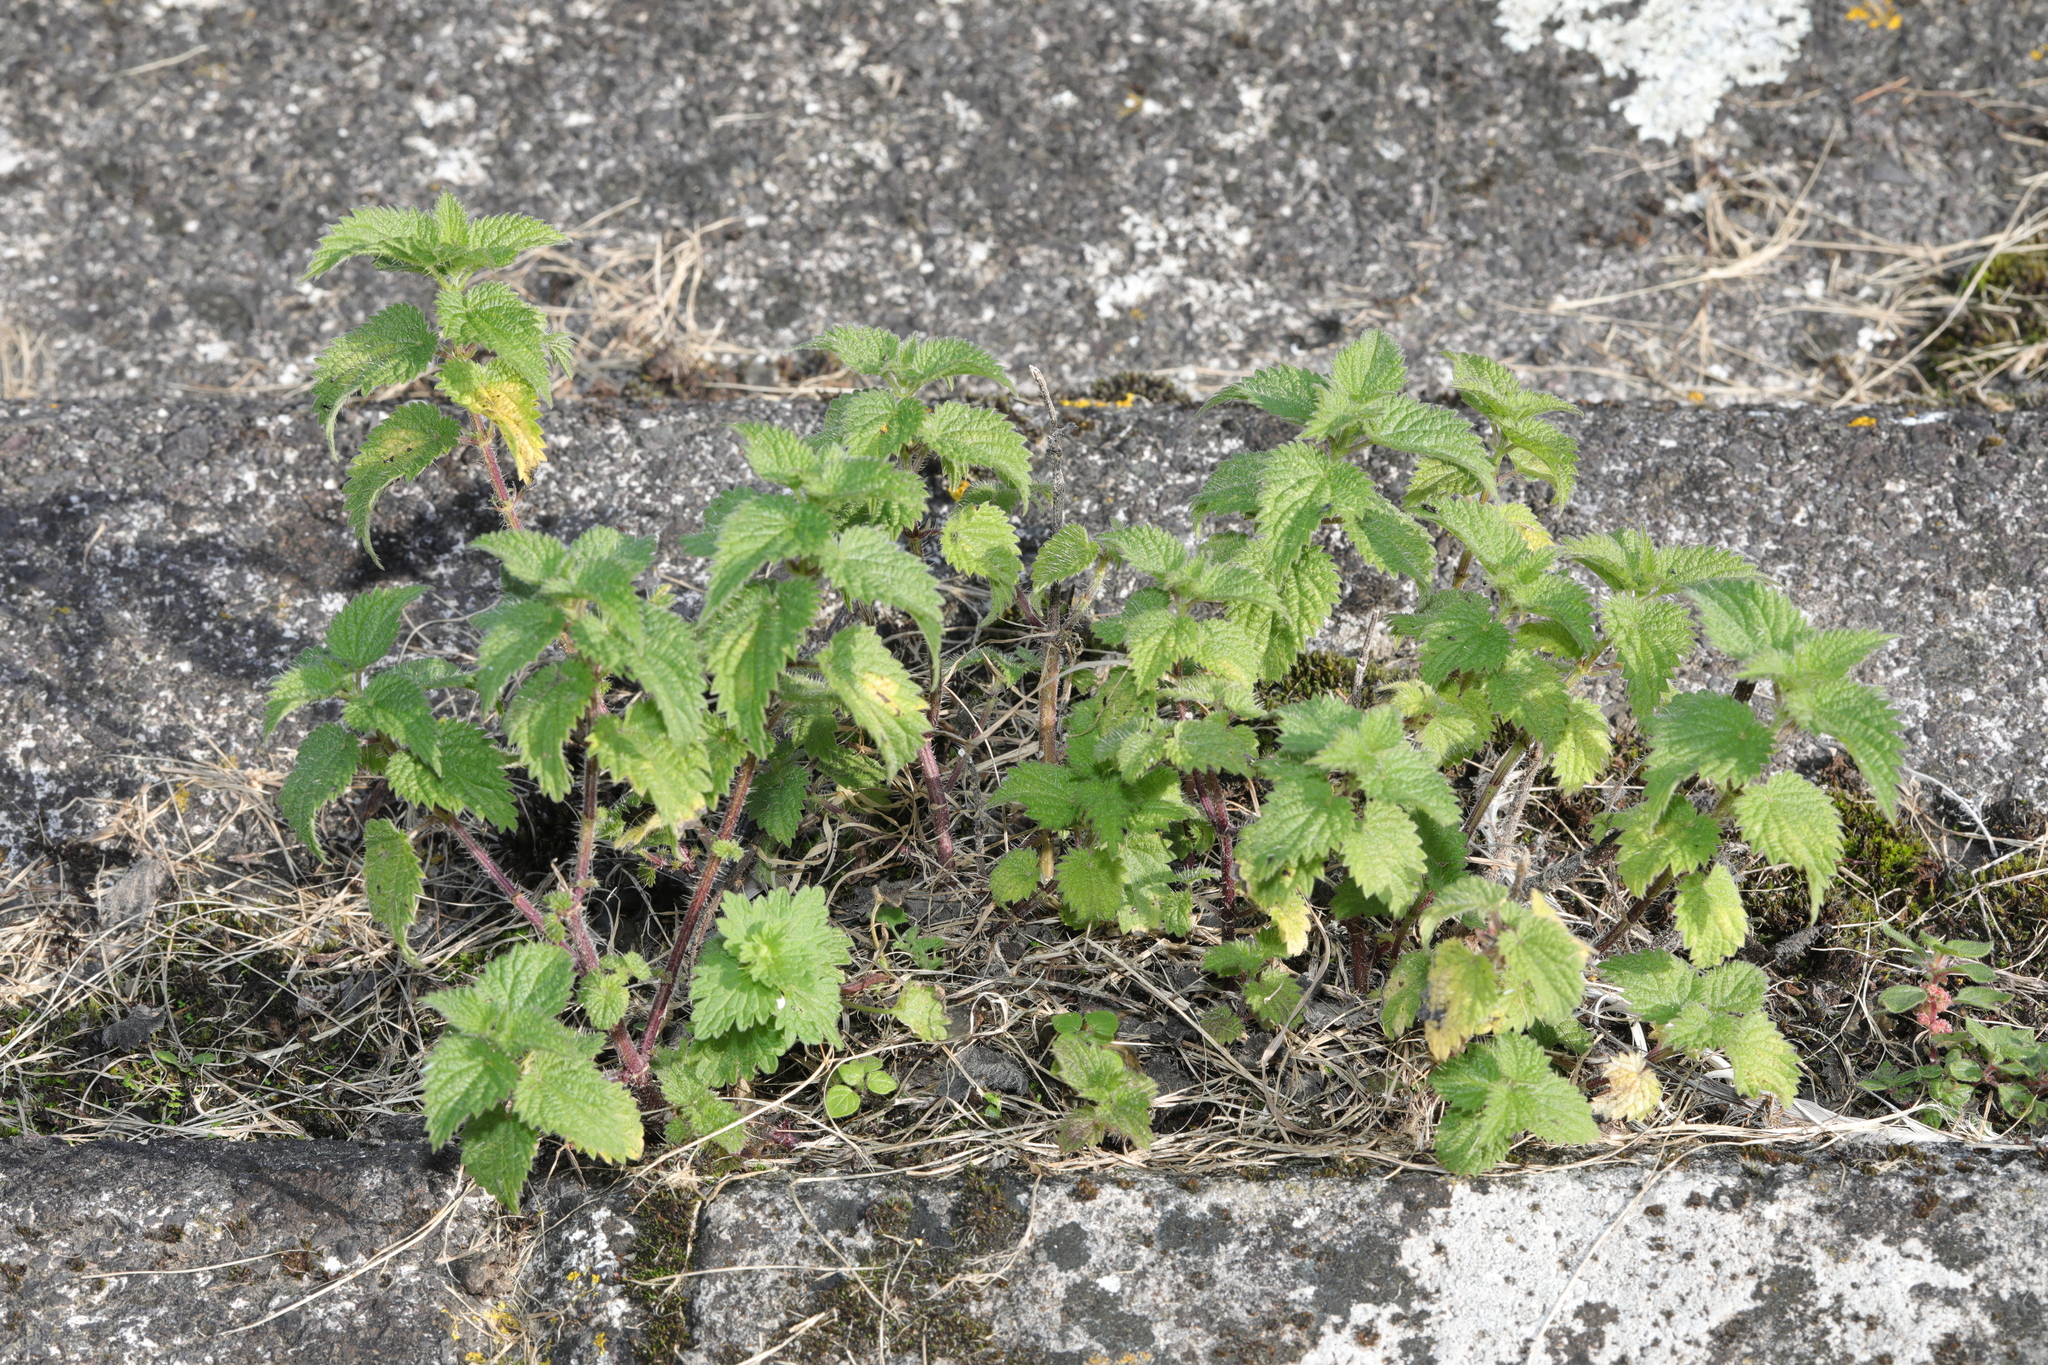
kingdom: Plantae
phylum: Tracheophyta
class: Magnoliopsida
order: Rosales
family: Urticaceae
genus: Urtica
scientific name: Urtica dioica
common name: Common nettle
